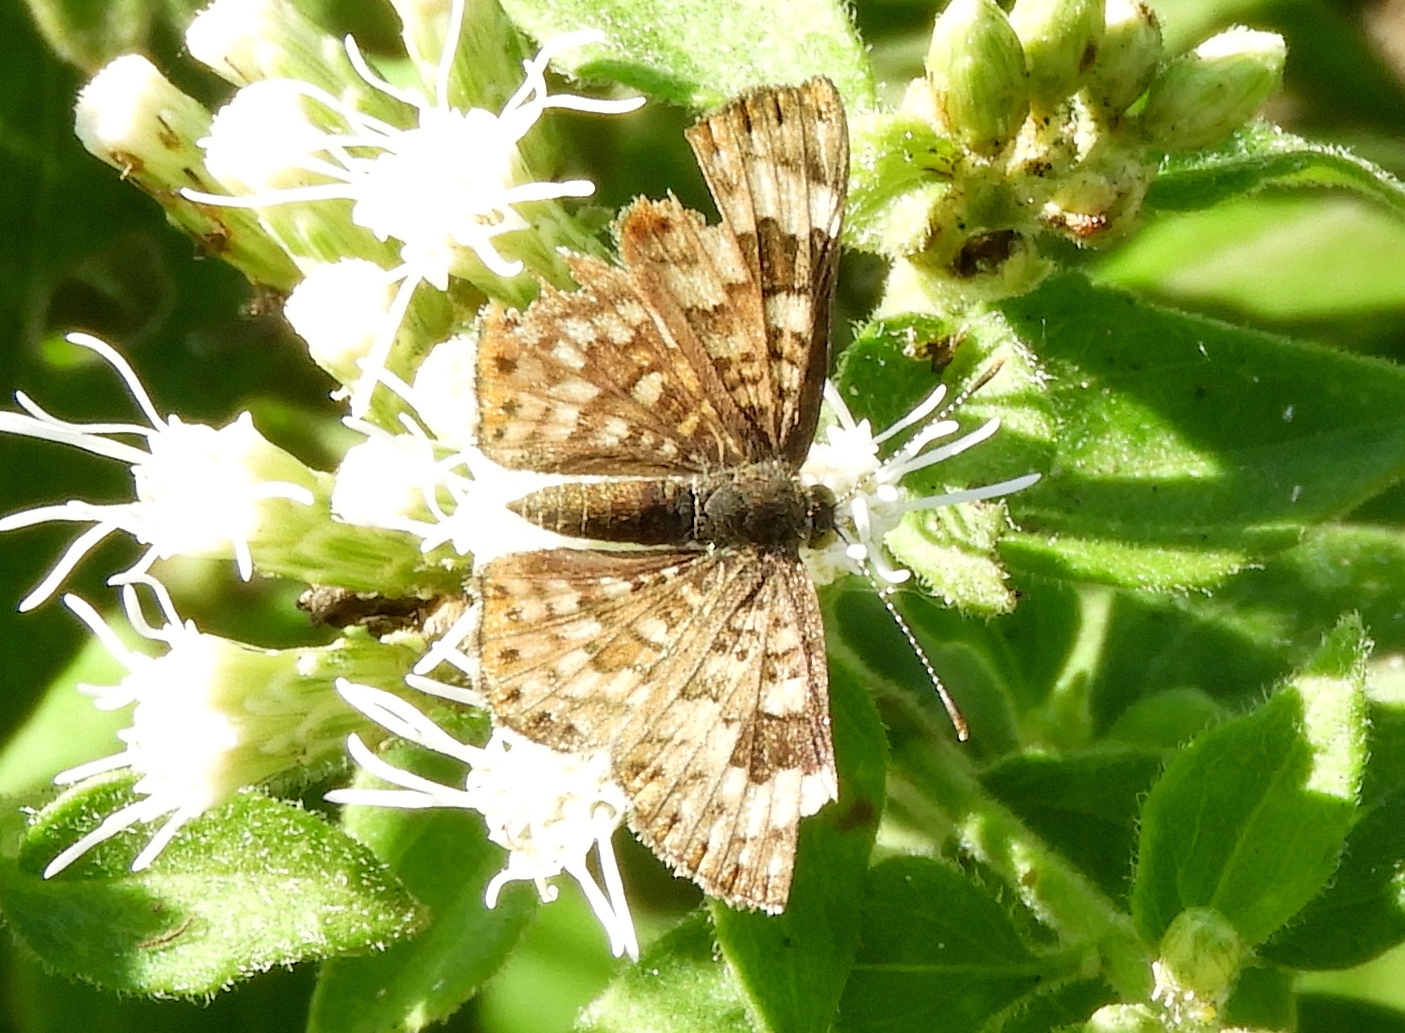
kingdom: Animalia
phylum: Arthropoda
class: Insecta
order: Hymenoptera
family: Braconidae
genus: Apodesmia
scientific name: Apodesmia
